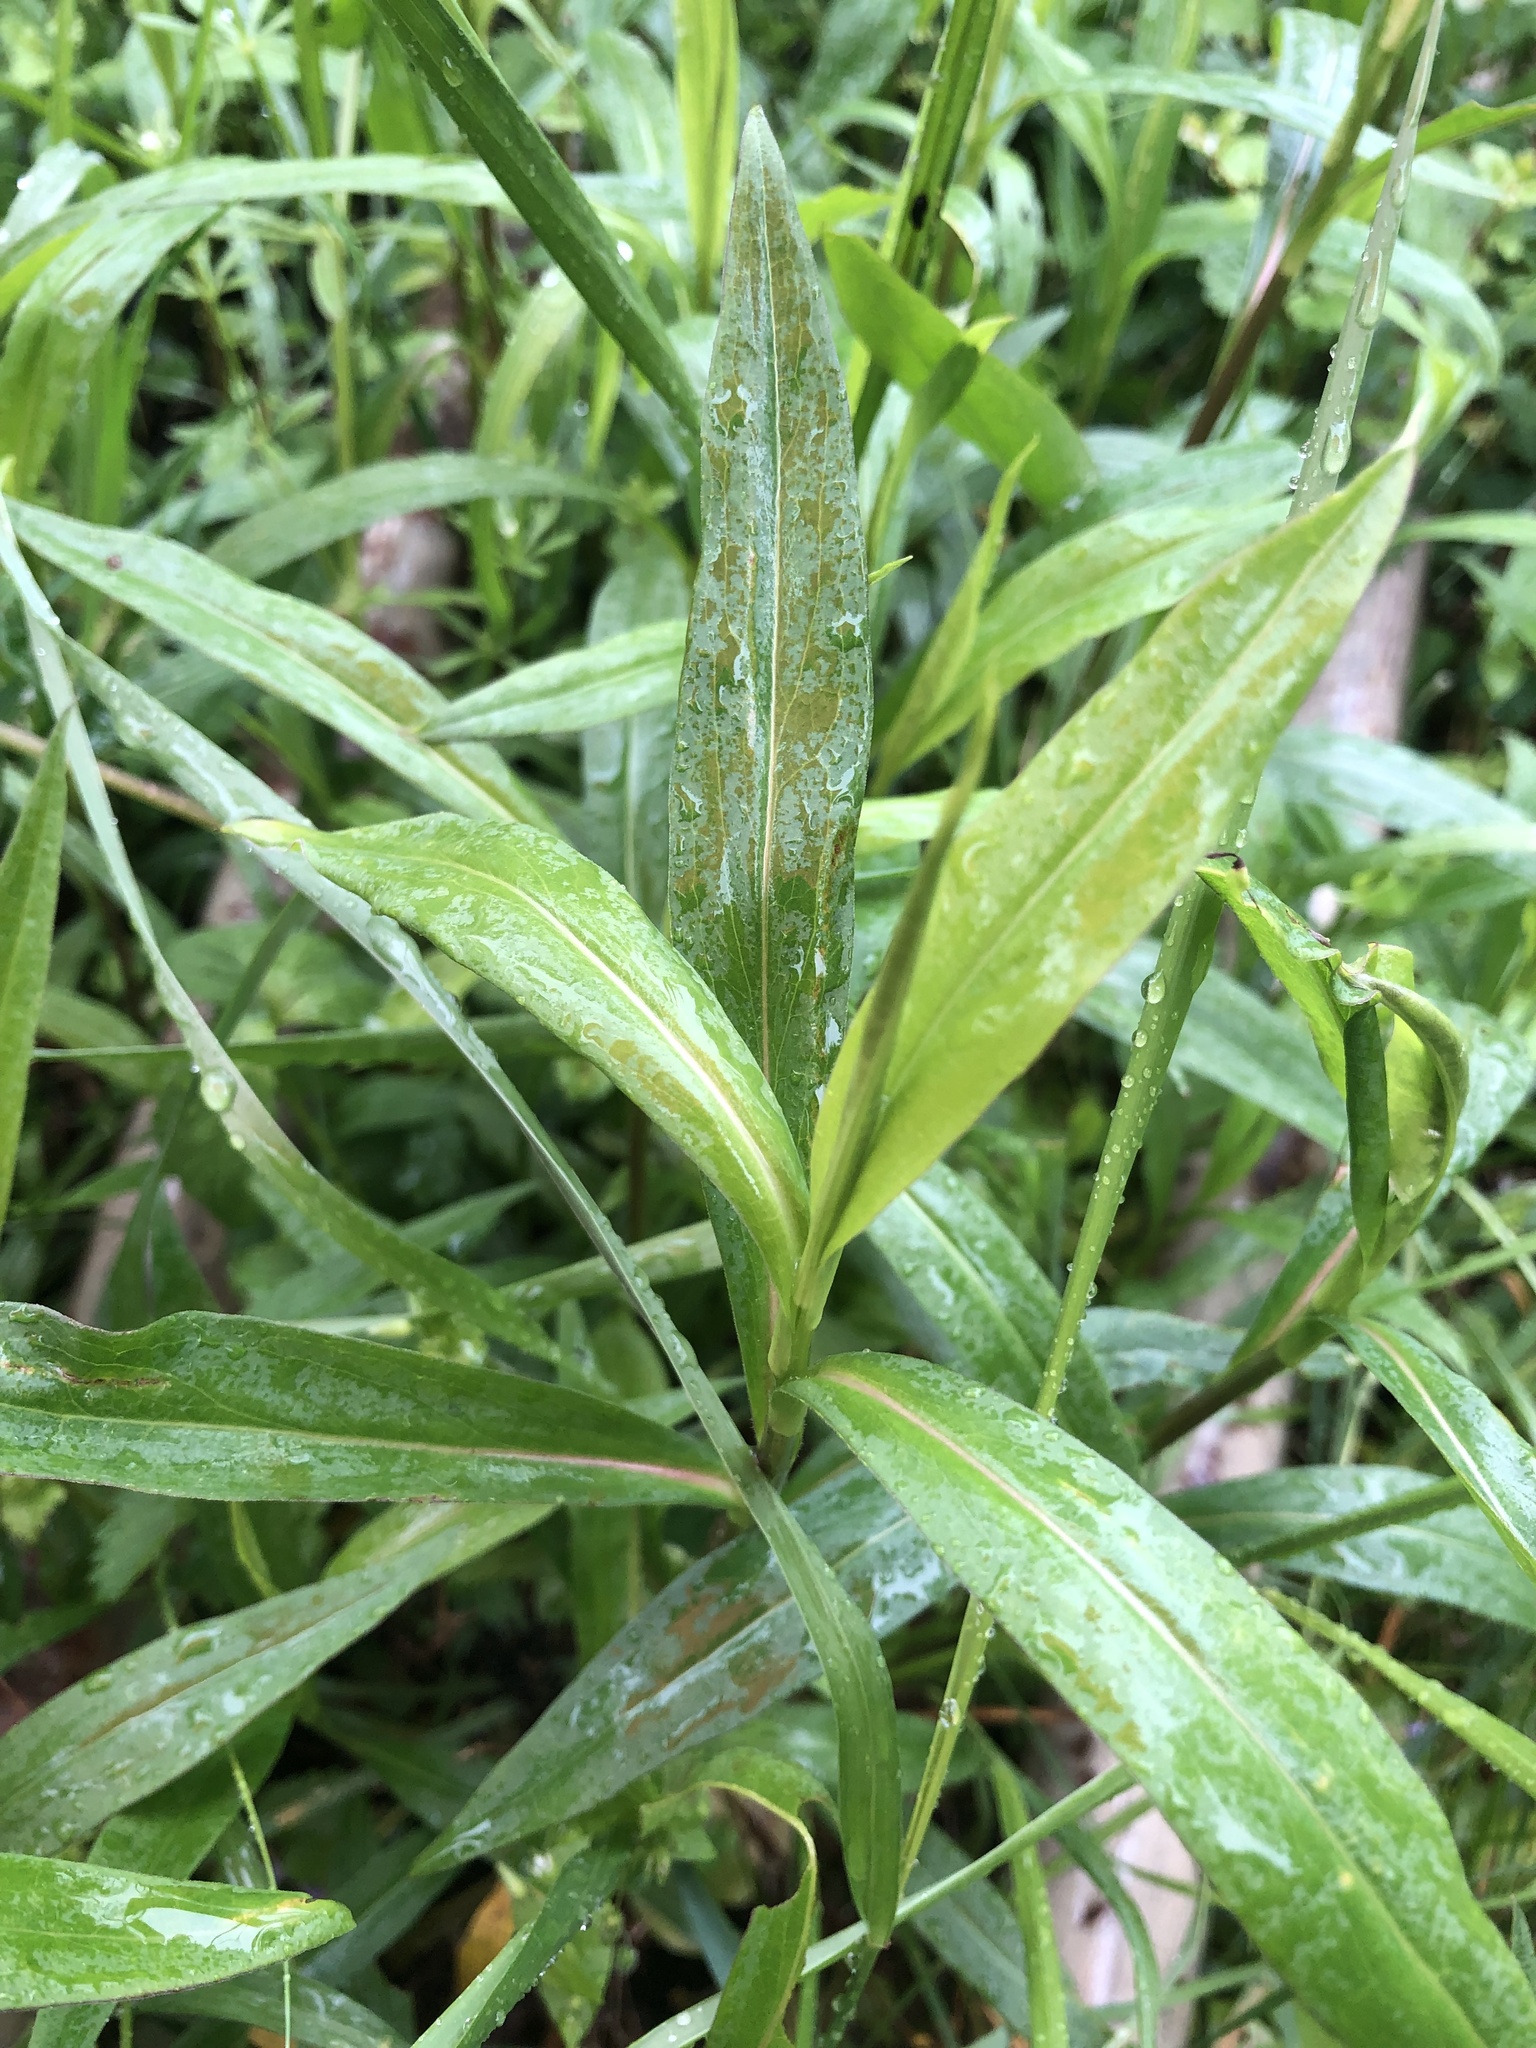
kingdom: Plantae
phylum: Tracheophyta
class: Magnoliopsida
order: Asterales
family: Asteraceae
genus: Symphyotrichum
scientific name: Symphyotrichum lanceolatum
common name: Panicled aster
